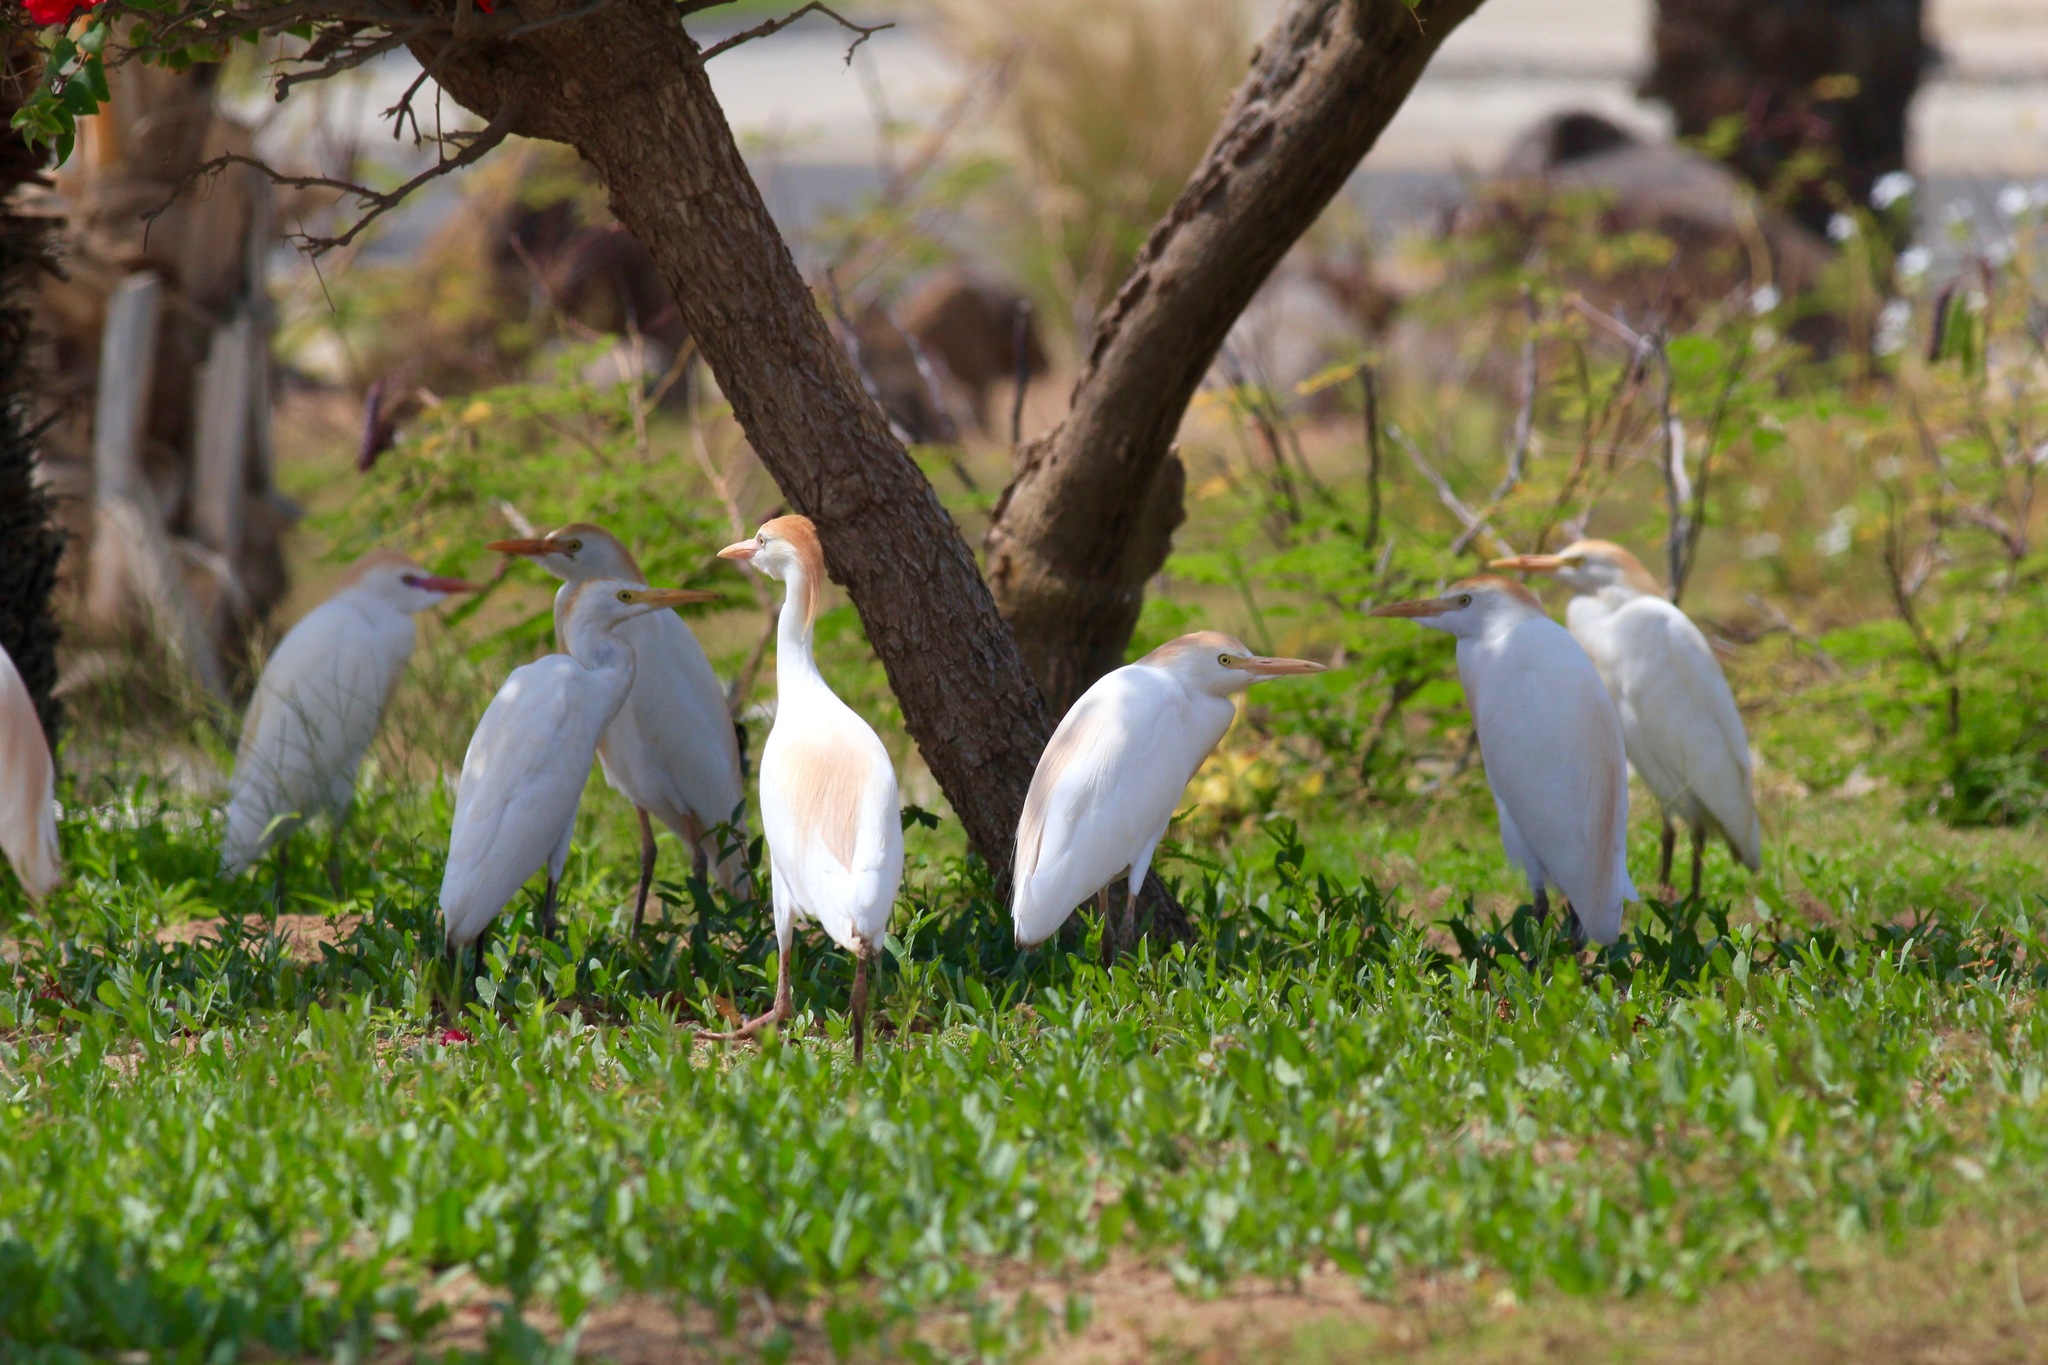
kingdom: Animalia
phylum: Chordata
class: Aves
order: Pelecaniformes
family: Ardeidae
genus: Bubulcus
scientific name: Bubulcus ibis
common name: Cattle egret
